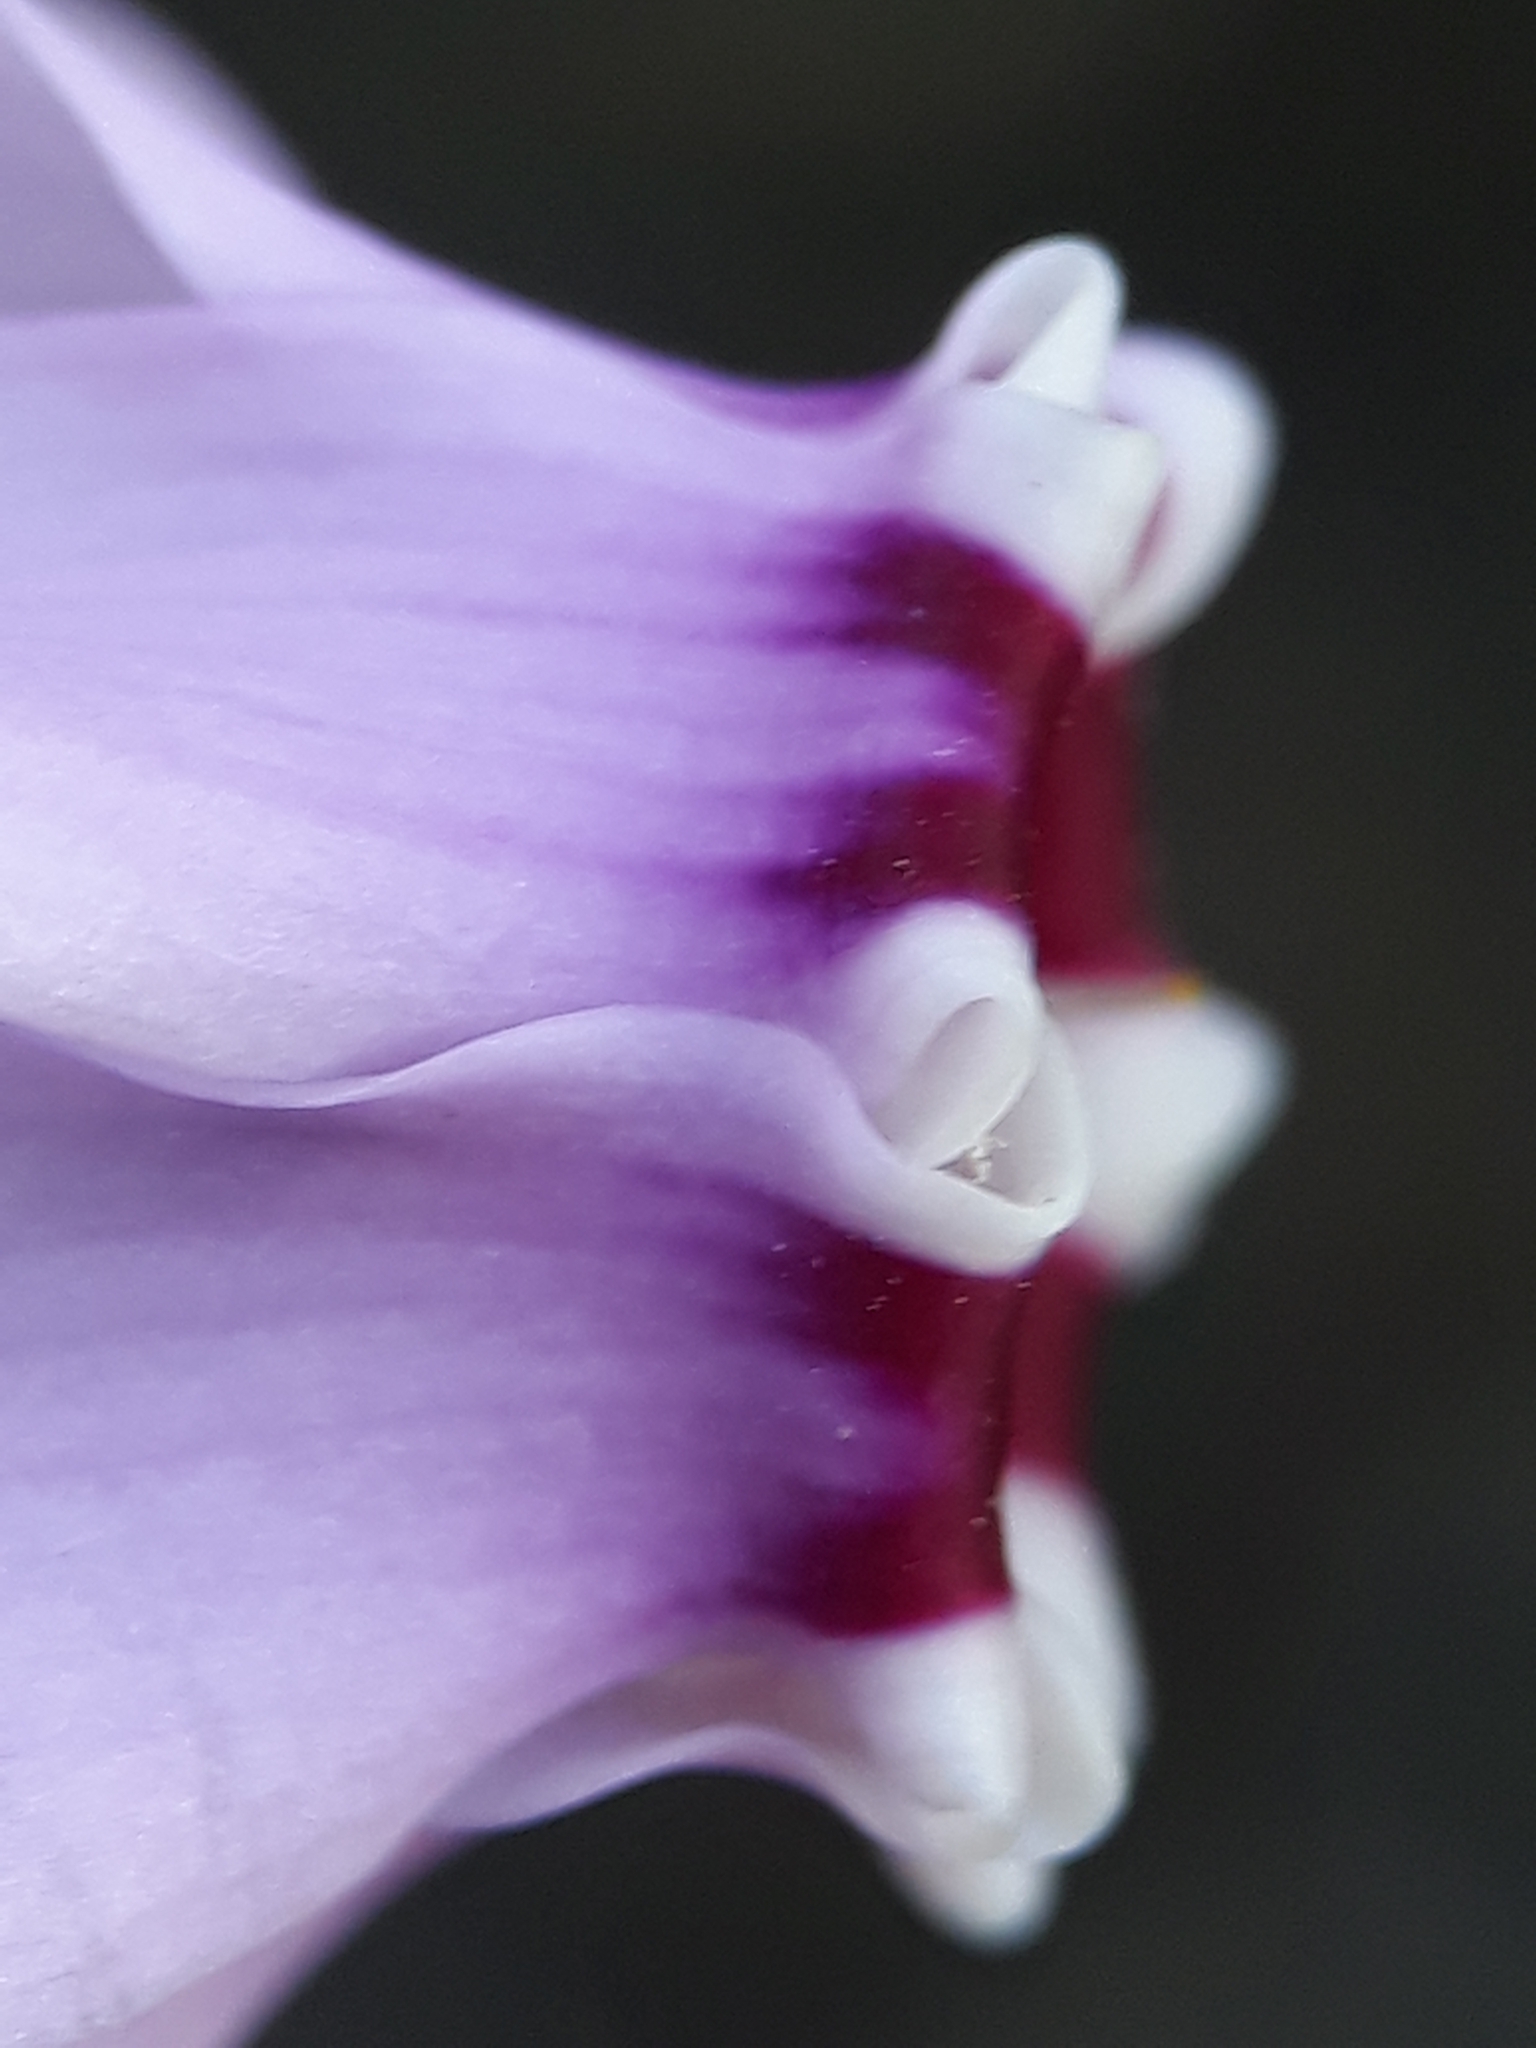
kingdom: Plantae
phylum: Tracheophyta
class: Magnoliopsida
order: Ericales
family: Primulaceae
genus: Cyclamen
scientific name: Cyclamen africanum
